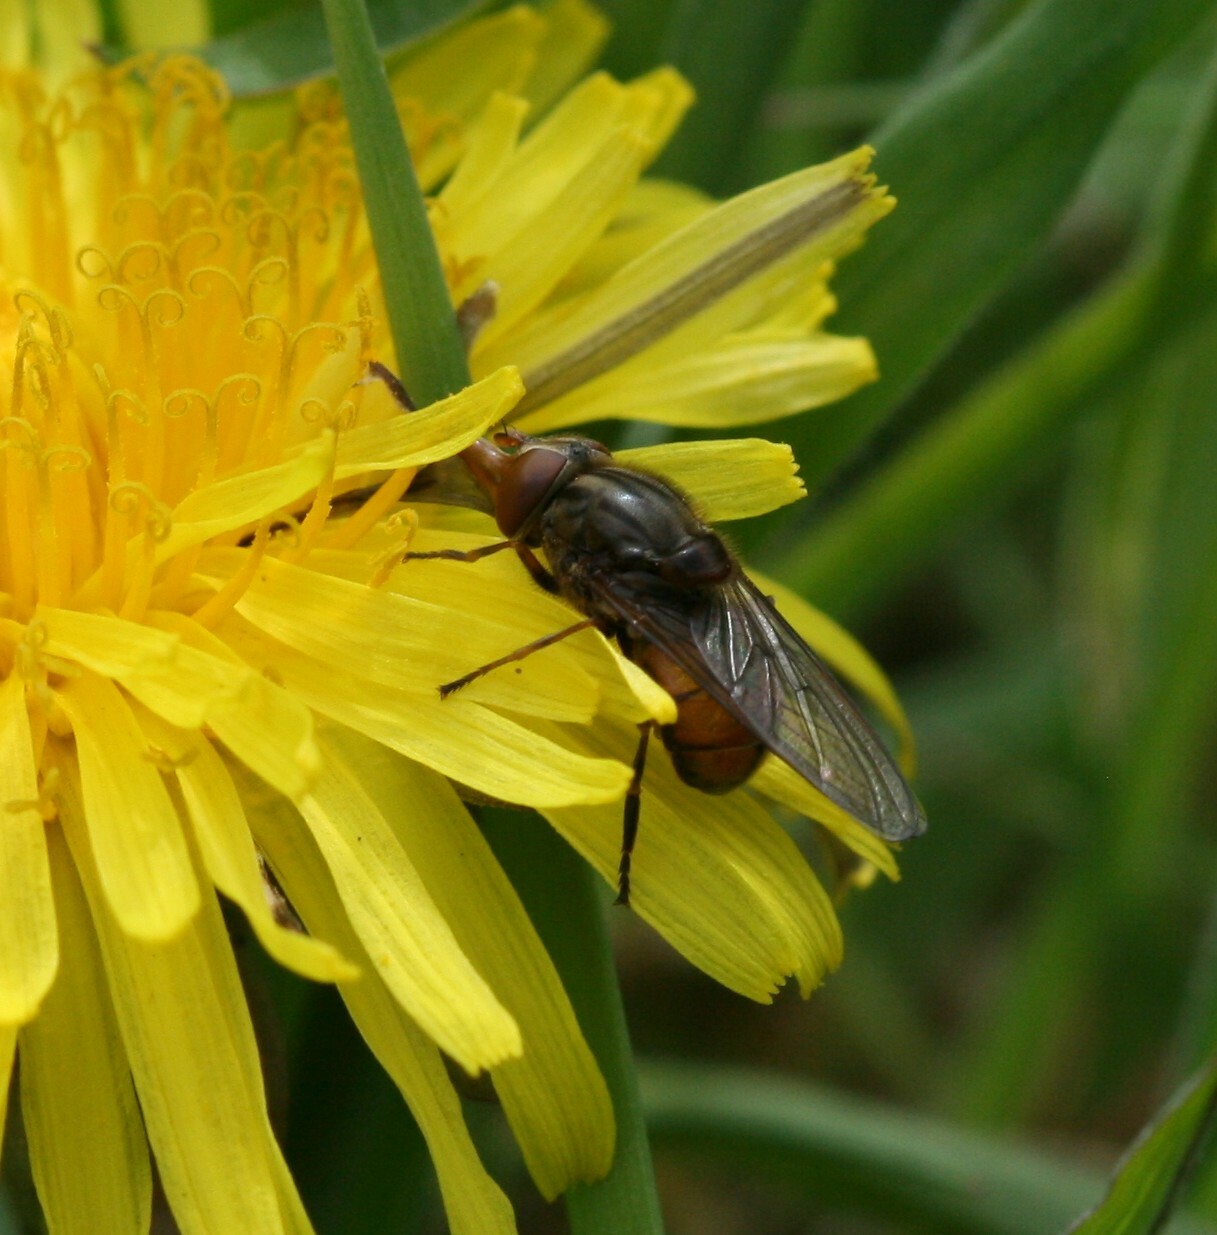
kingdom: Animalia
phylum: Arthropoda
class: Insecta
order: Diptera
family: Syrphidae
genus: Rhingia
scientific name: Rhingia campestris
